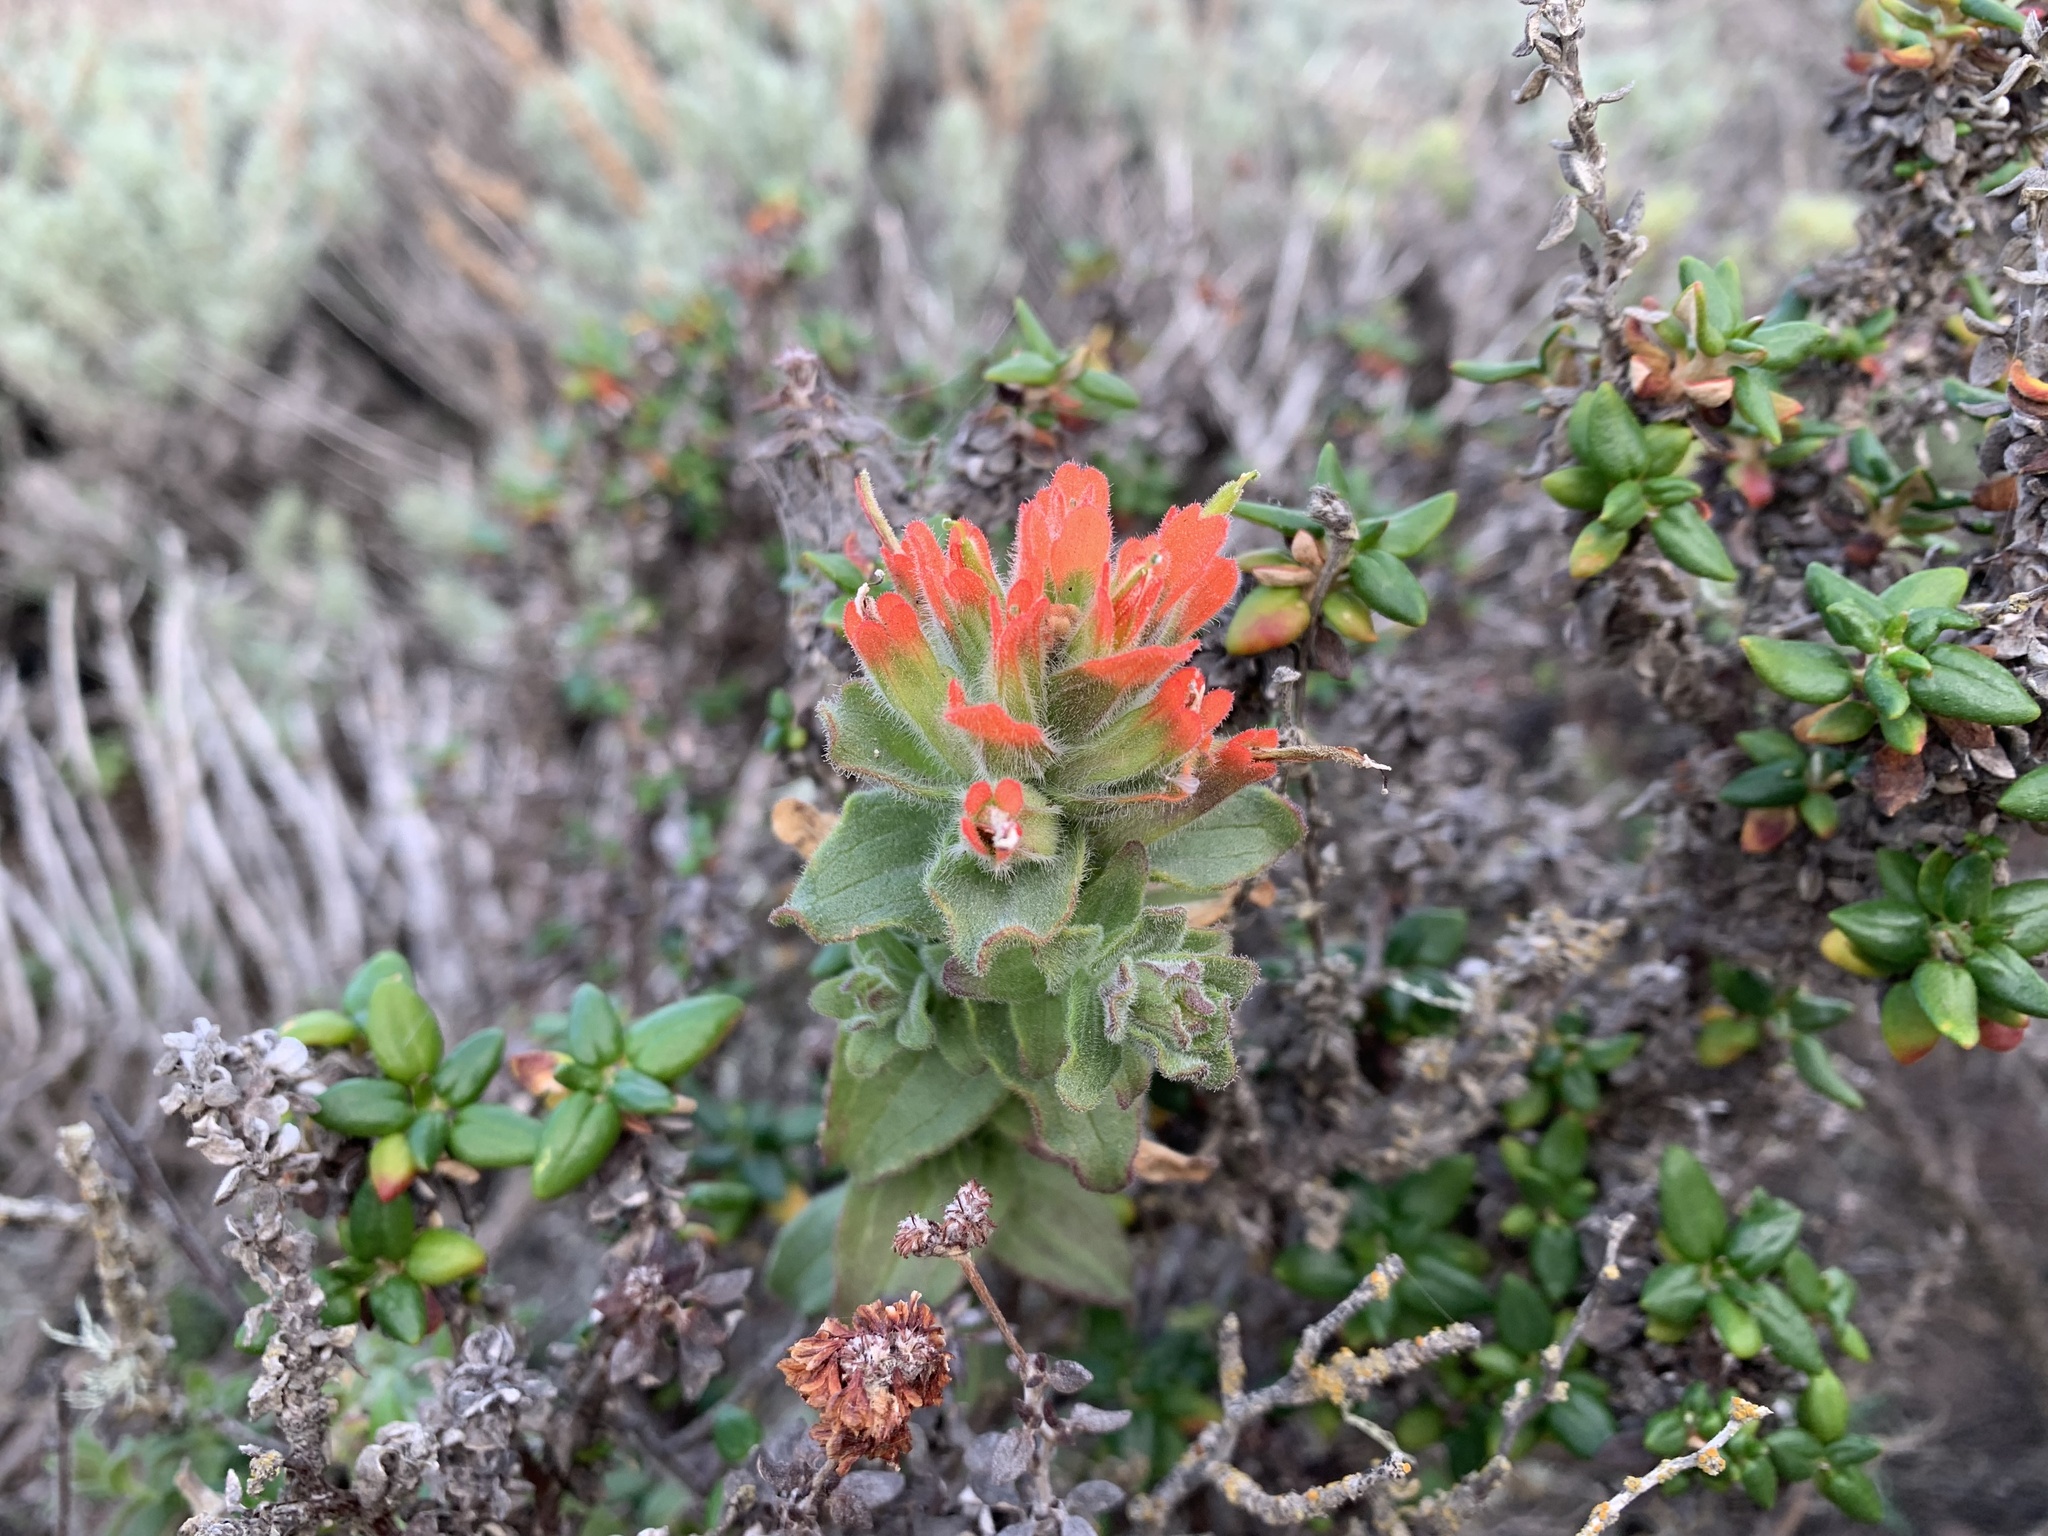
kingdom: Plantae
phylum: Tracheophyta
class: Magnoliopsida
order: Lamiales
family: Orobanchaceae
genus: Castilleja
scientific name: Castilleja latifolia
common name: Monterey indian paintbrush
